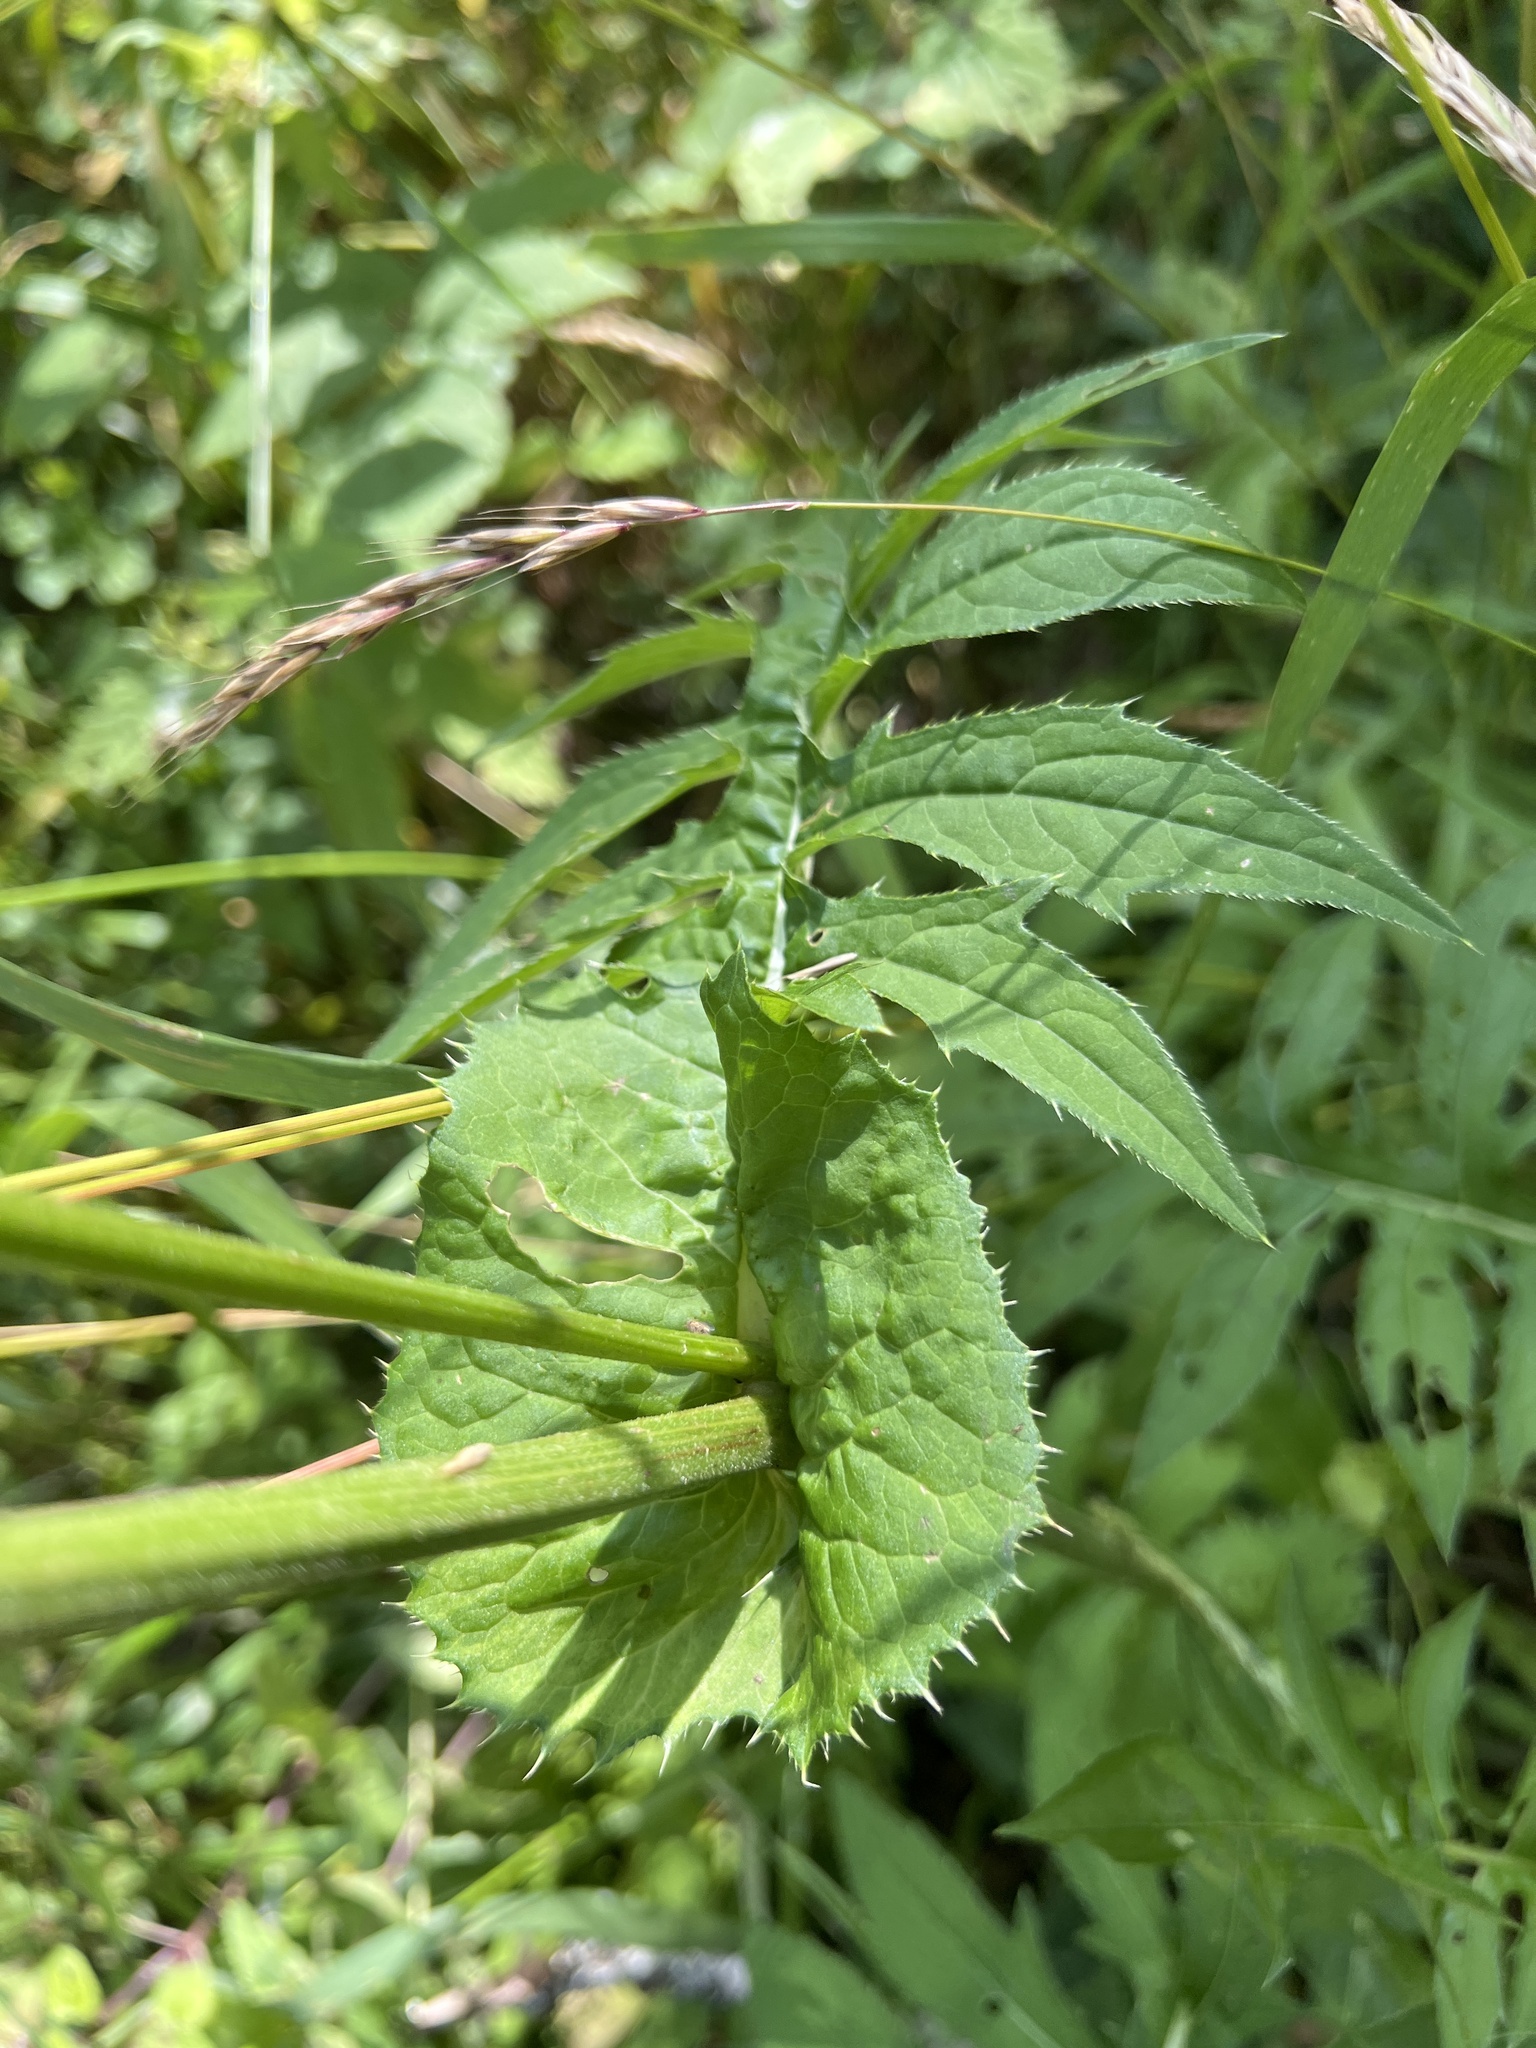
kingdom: Plantae
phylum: Tracheophyta
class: Magnoliopsida
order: Asterales
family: Asteraceae
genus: Cirsium
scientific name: Cirsium oleraceum
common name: Cabbage thistle
